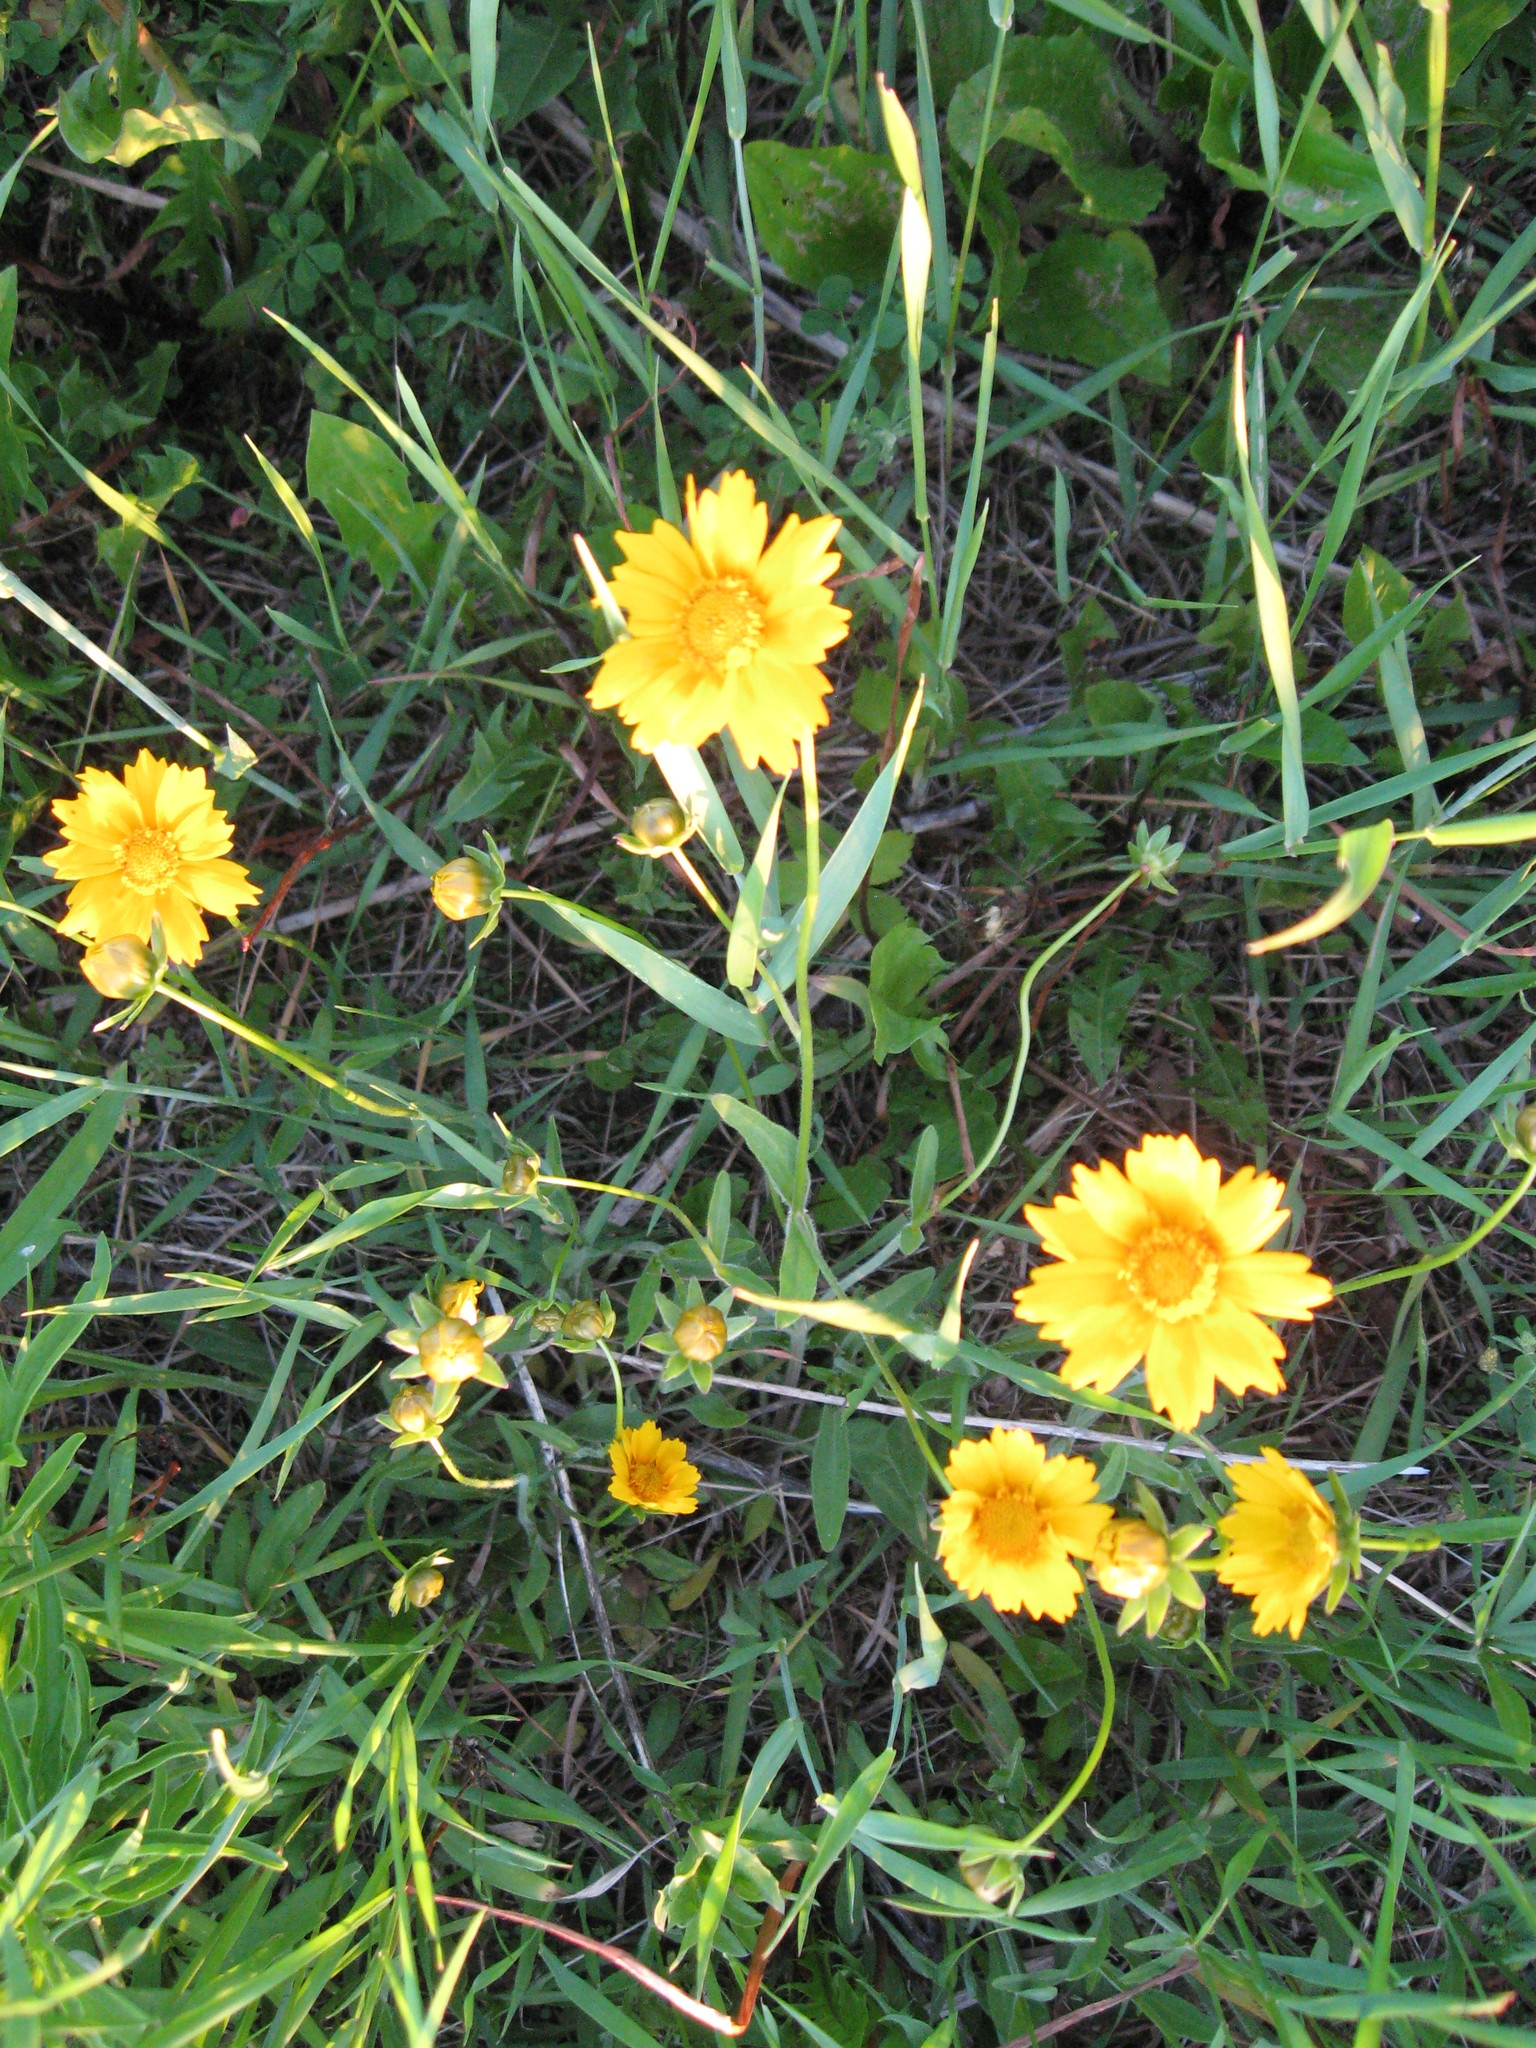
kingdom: Plantae
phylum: Tracheophyta
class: Magnoliopsida
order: Asterales
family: Asteraceae
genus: Coreopsis
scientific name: Coreopsis lanceolata
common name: Garden coreopsis
